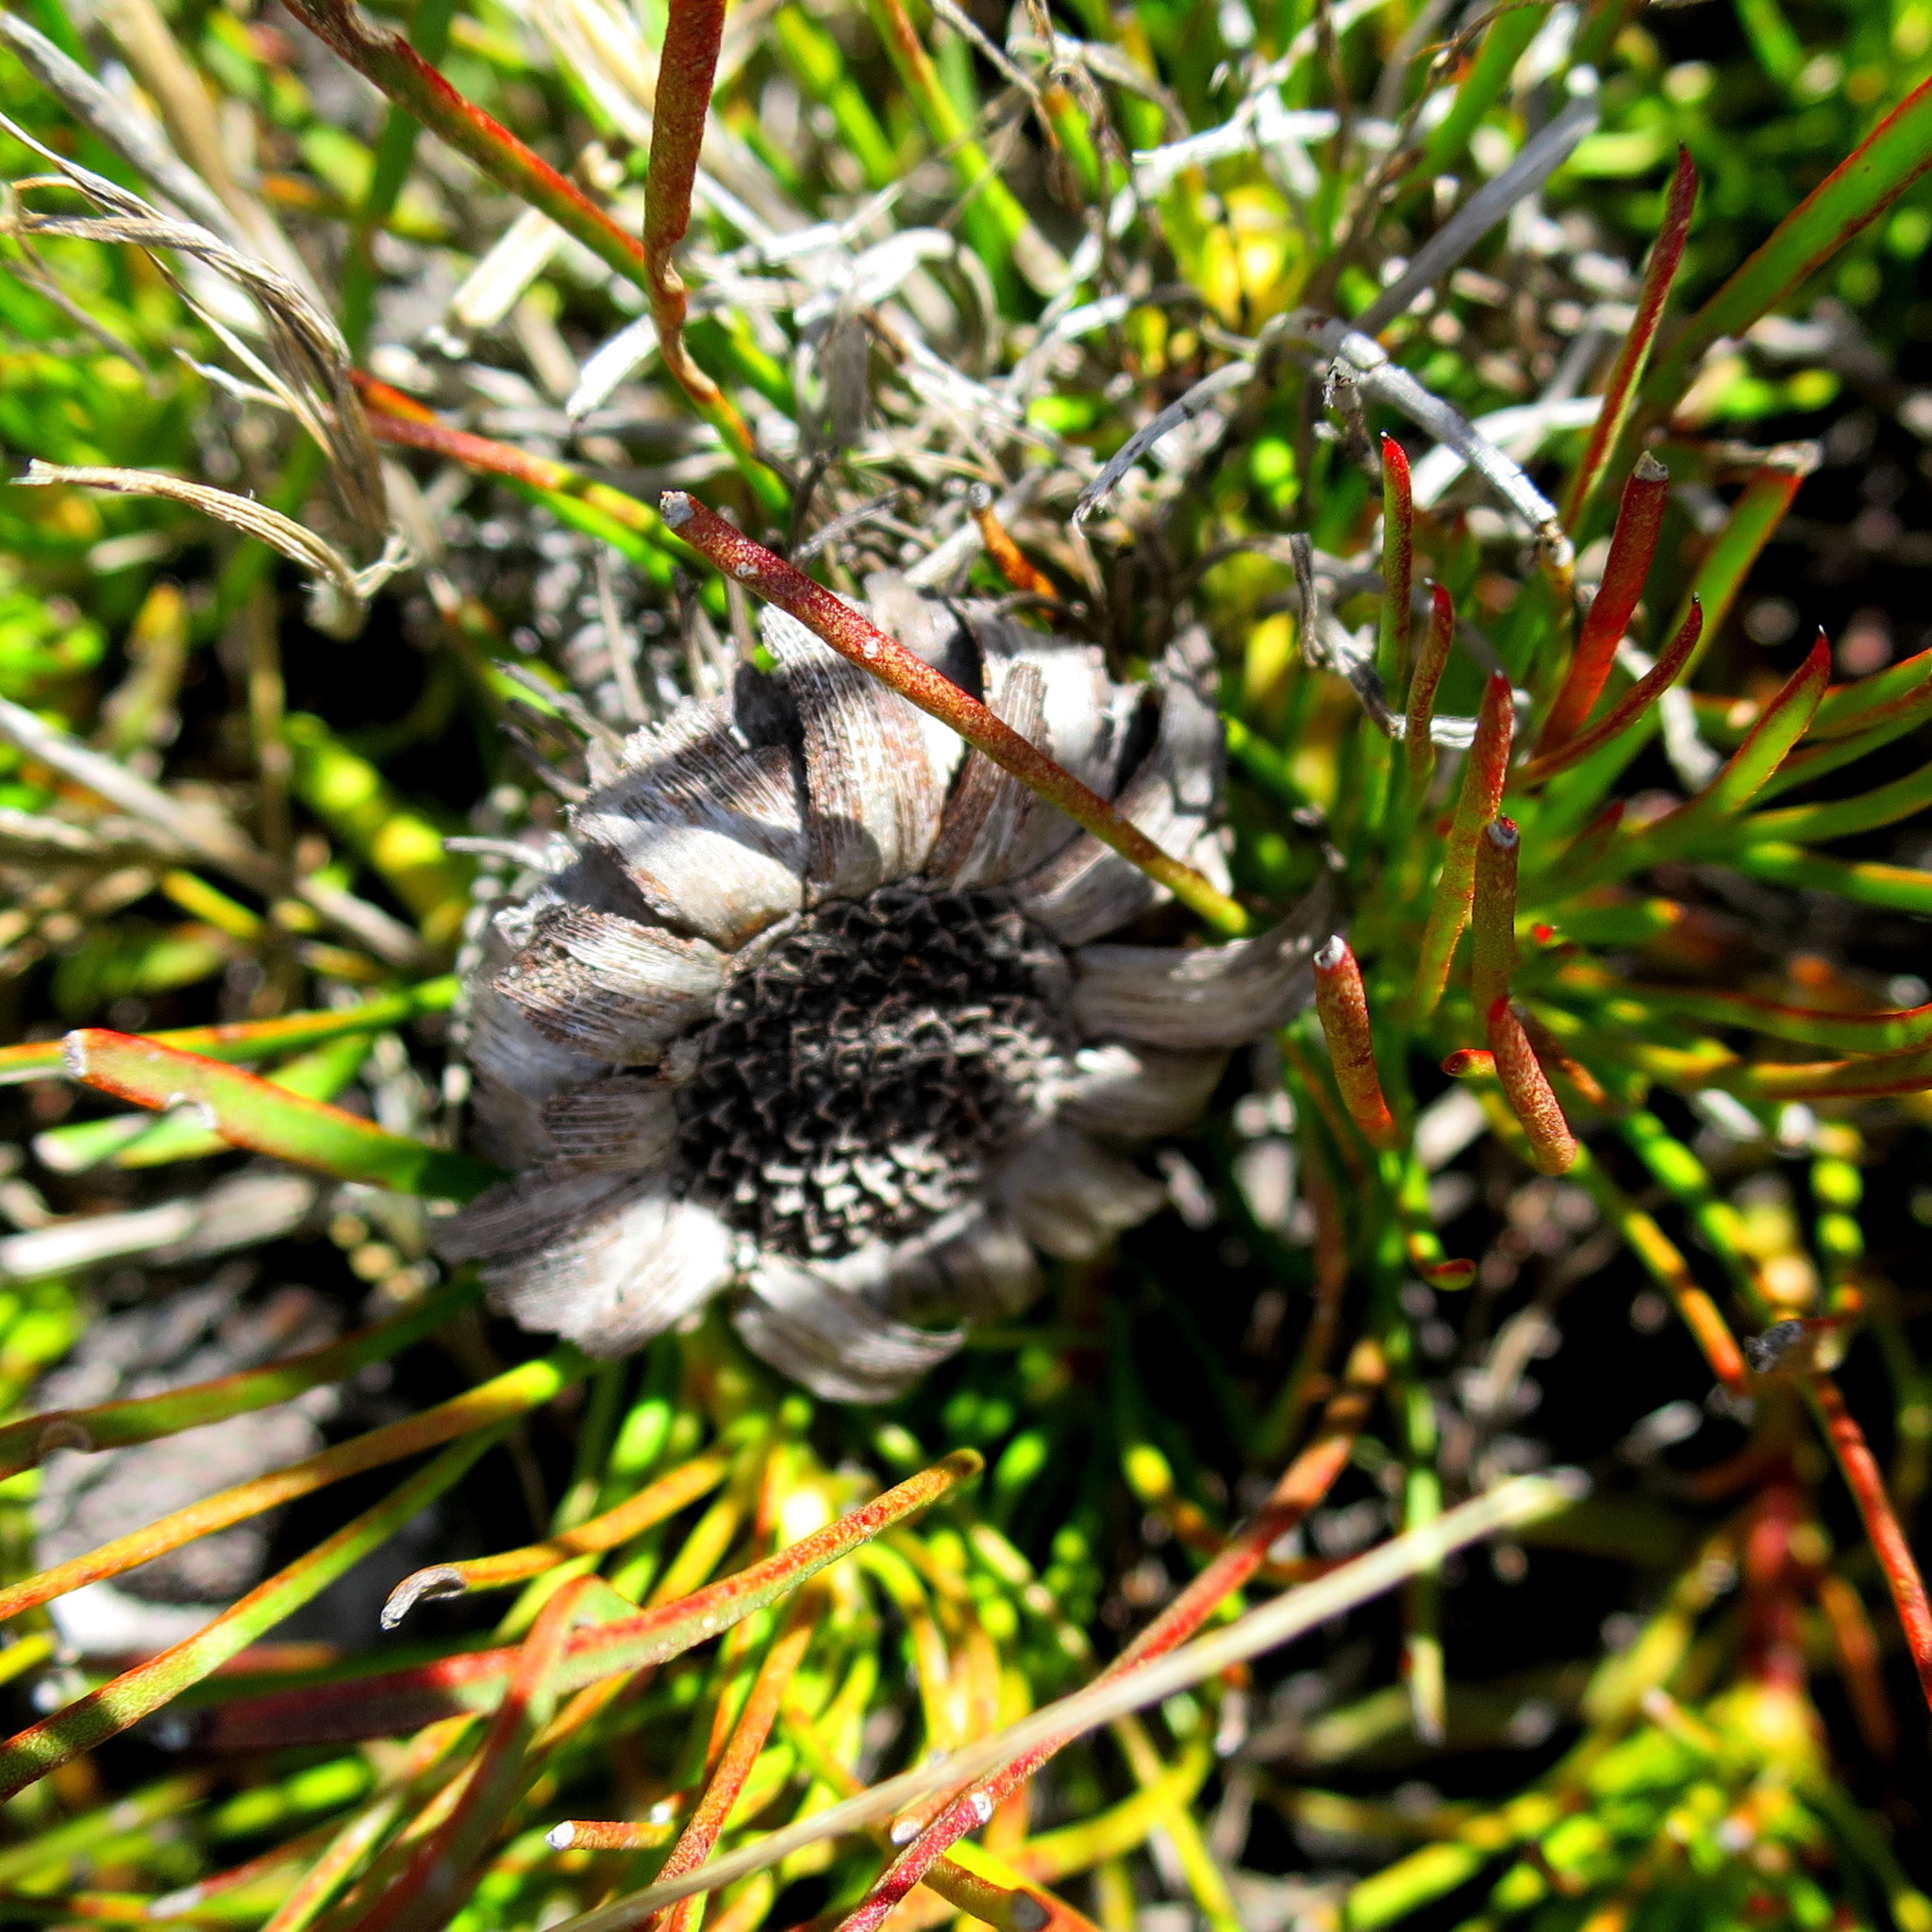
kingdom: Plantae
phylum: Tracheophyta
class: Magnoliopsida
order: Proteales
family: Proteaceae
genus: Protea
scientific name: Protea montana
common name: Swartberg sugarbush
